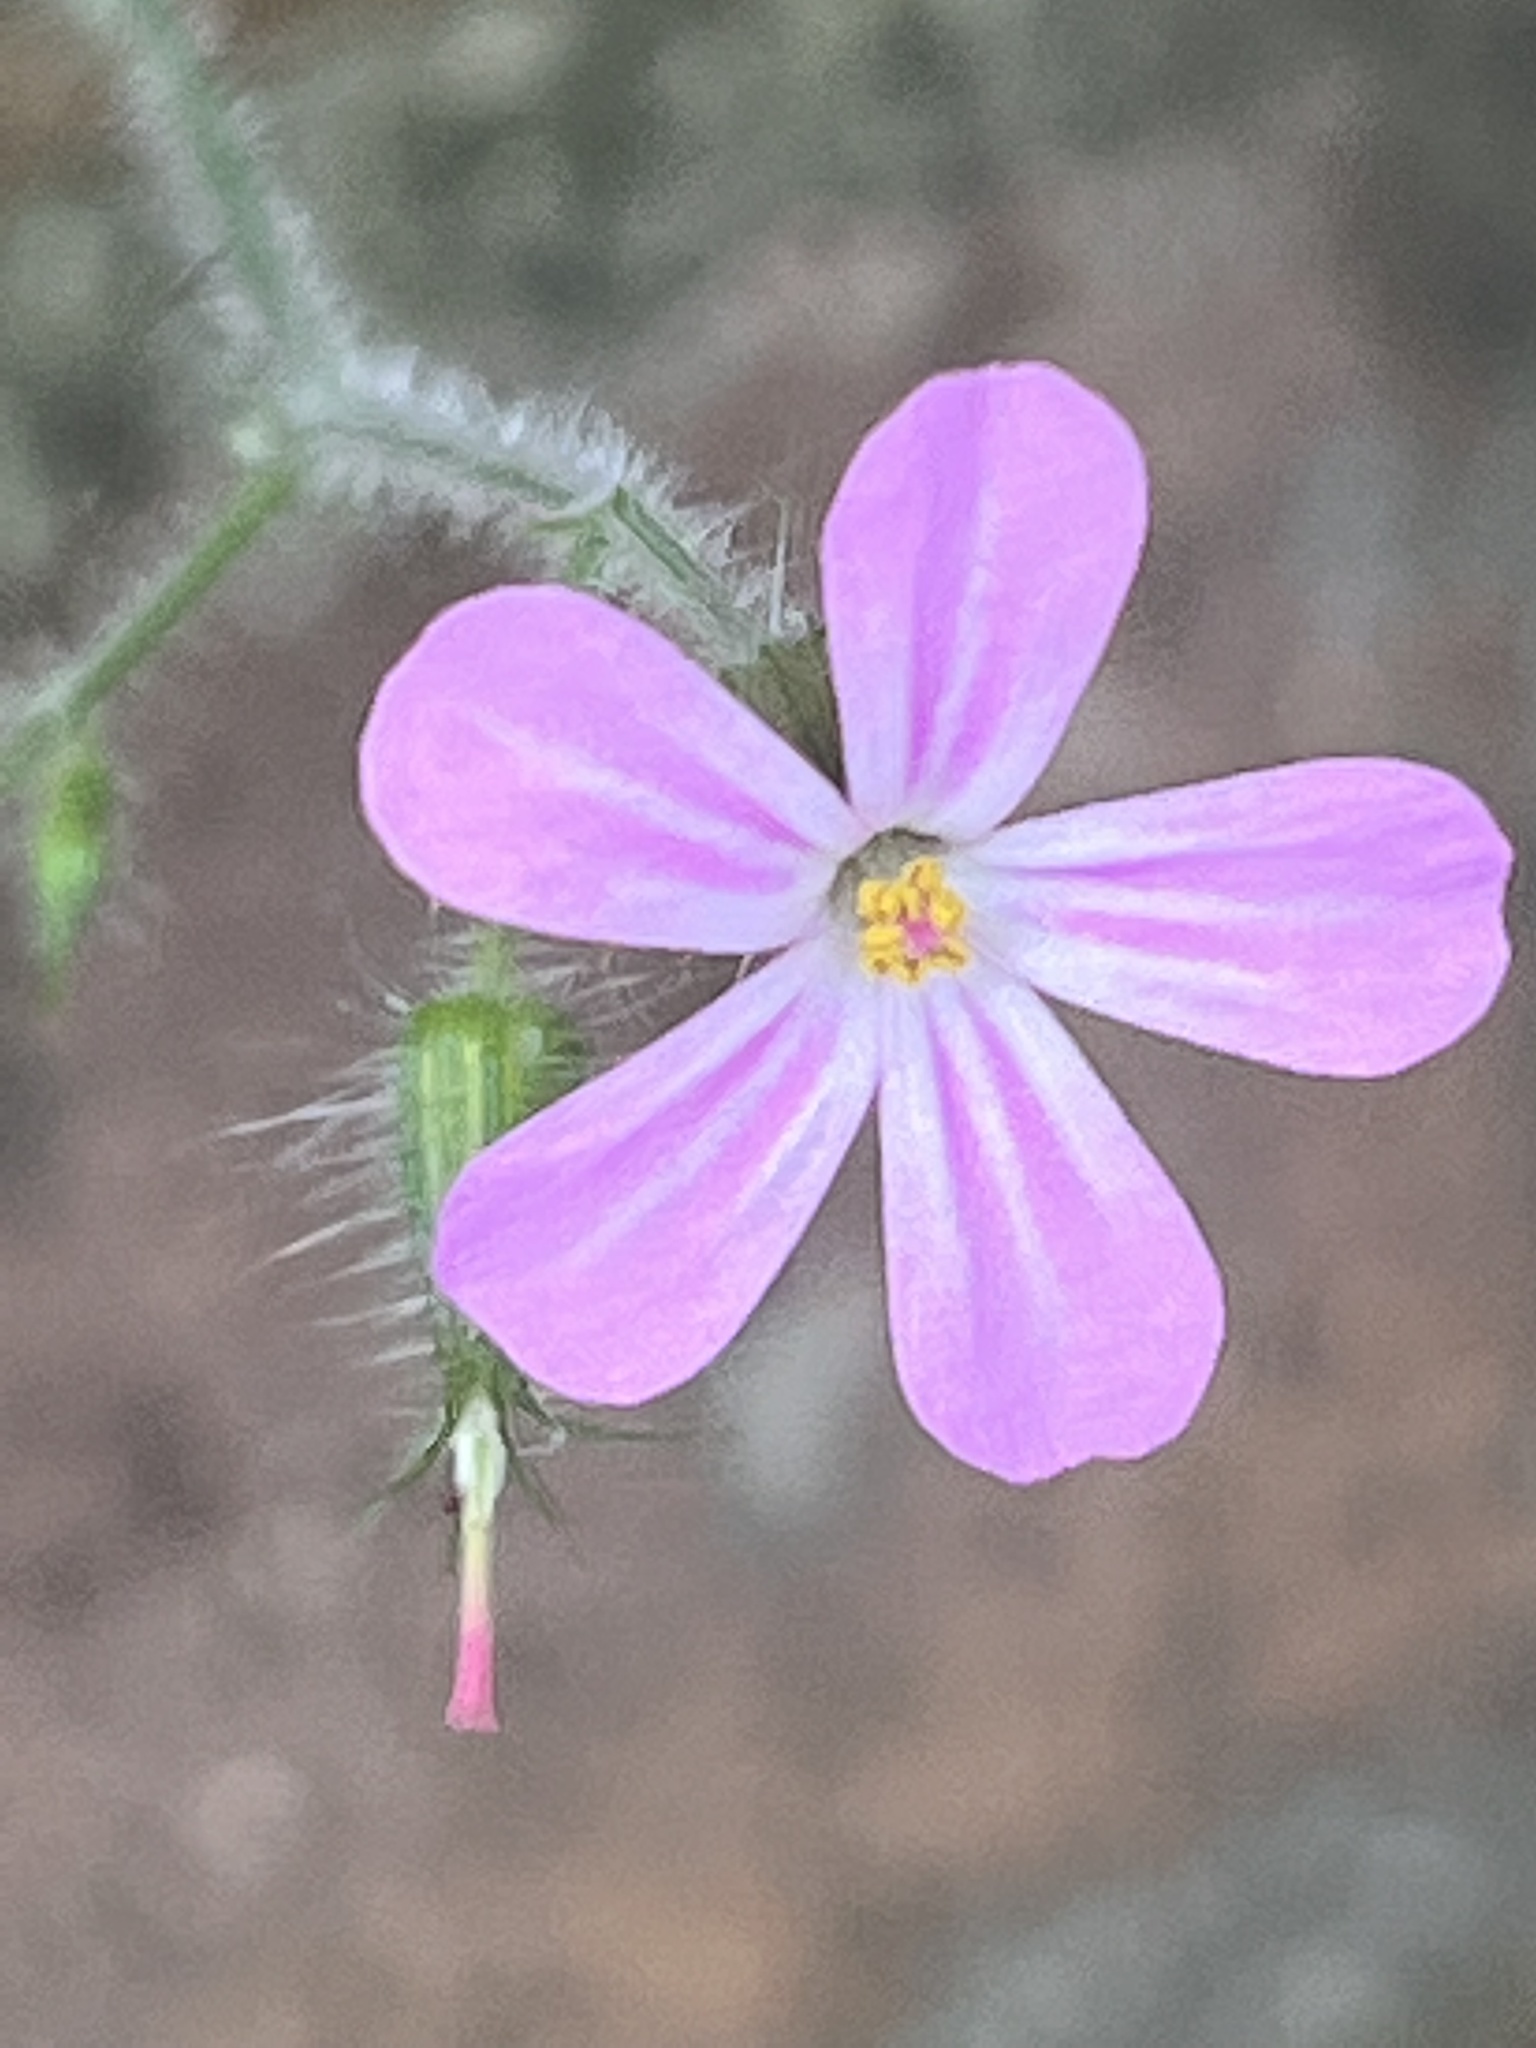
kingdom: Plantae
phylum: Tracheophyta
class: Magnoliopsida
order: Geraniales
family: Geraniaceae
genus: Geranium
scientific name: Geranium robertianum
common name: Herb-robert
